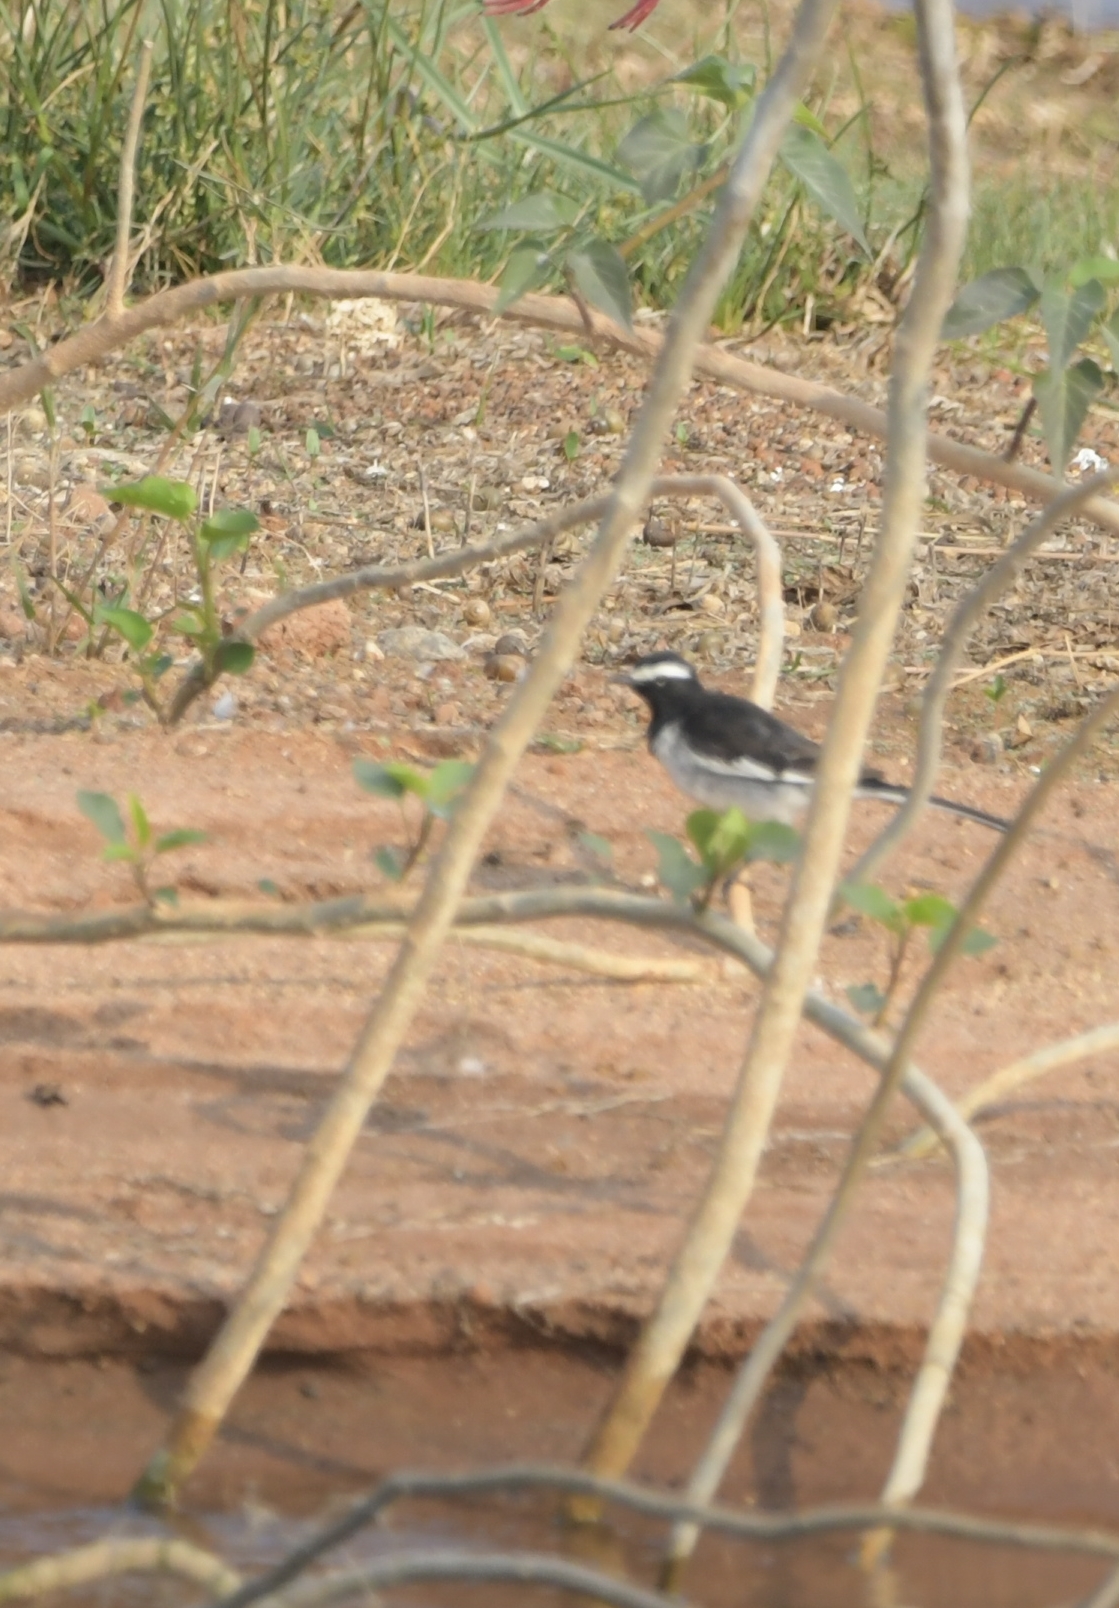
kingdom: Animalia
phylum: Chordata
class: Aves
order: Passeriformes
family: Motacillidae
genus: Motacilla
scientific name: Motacilla maderaspatensis
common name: White-browed wagtail
